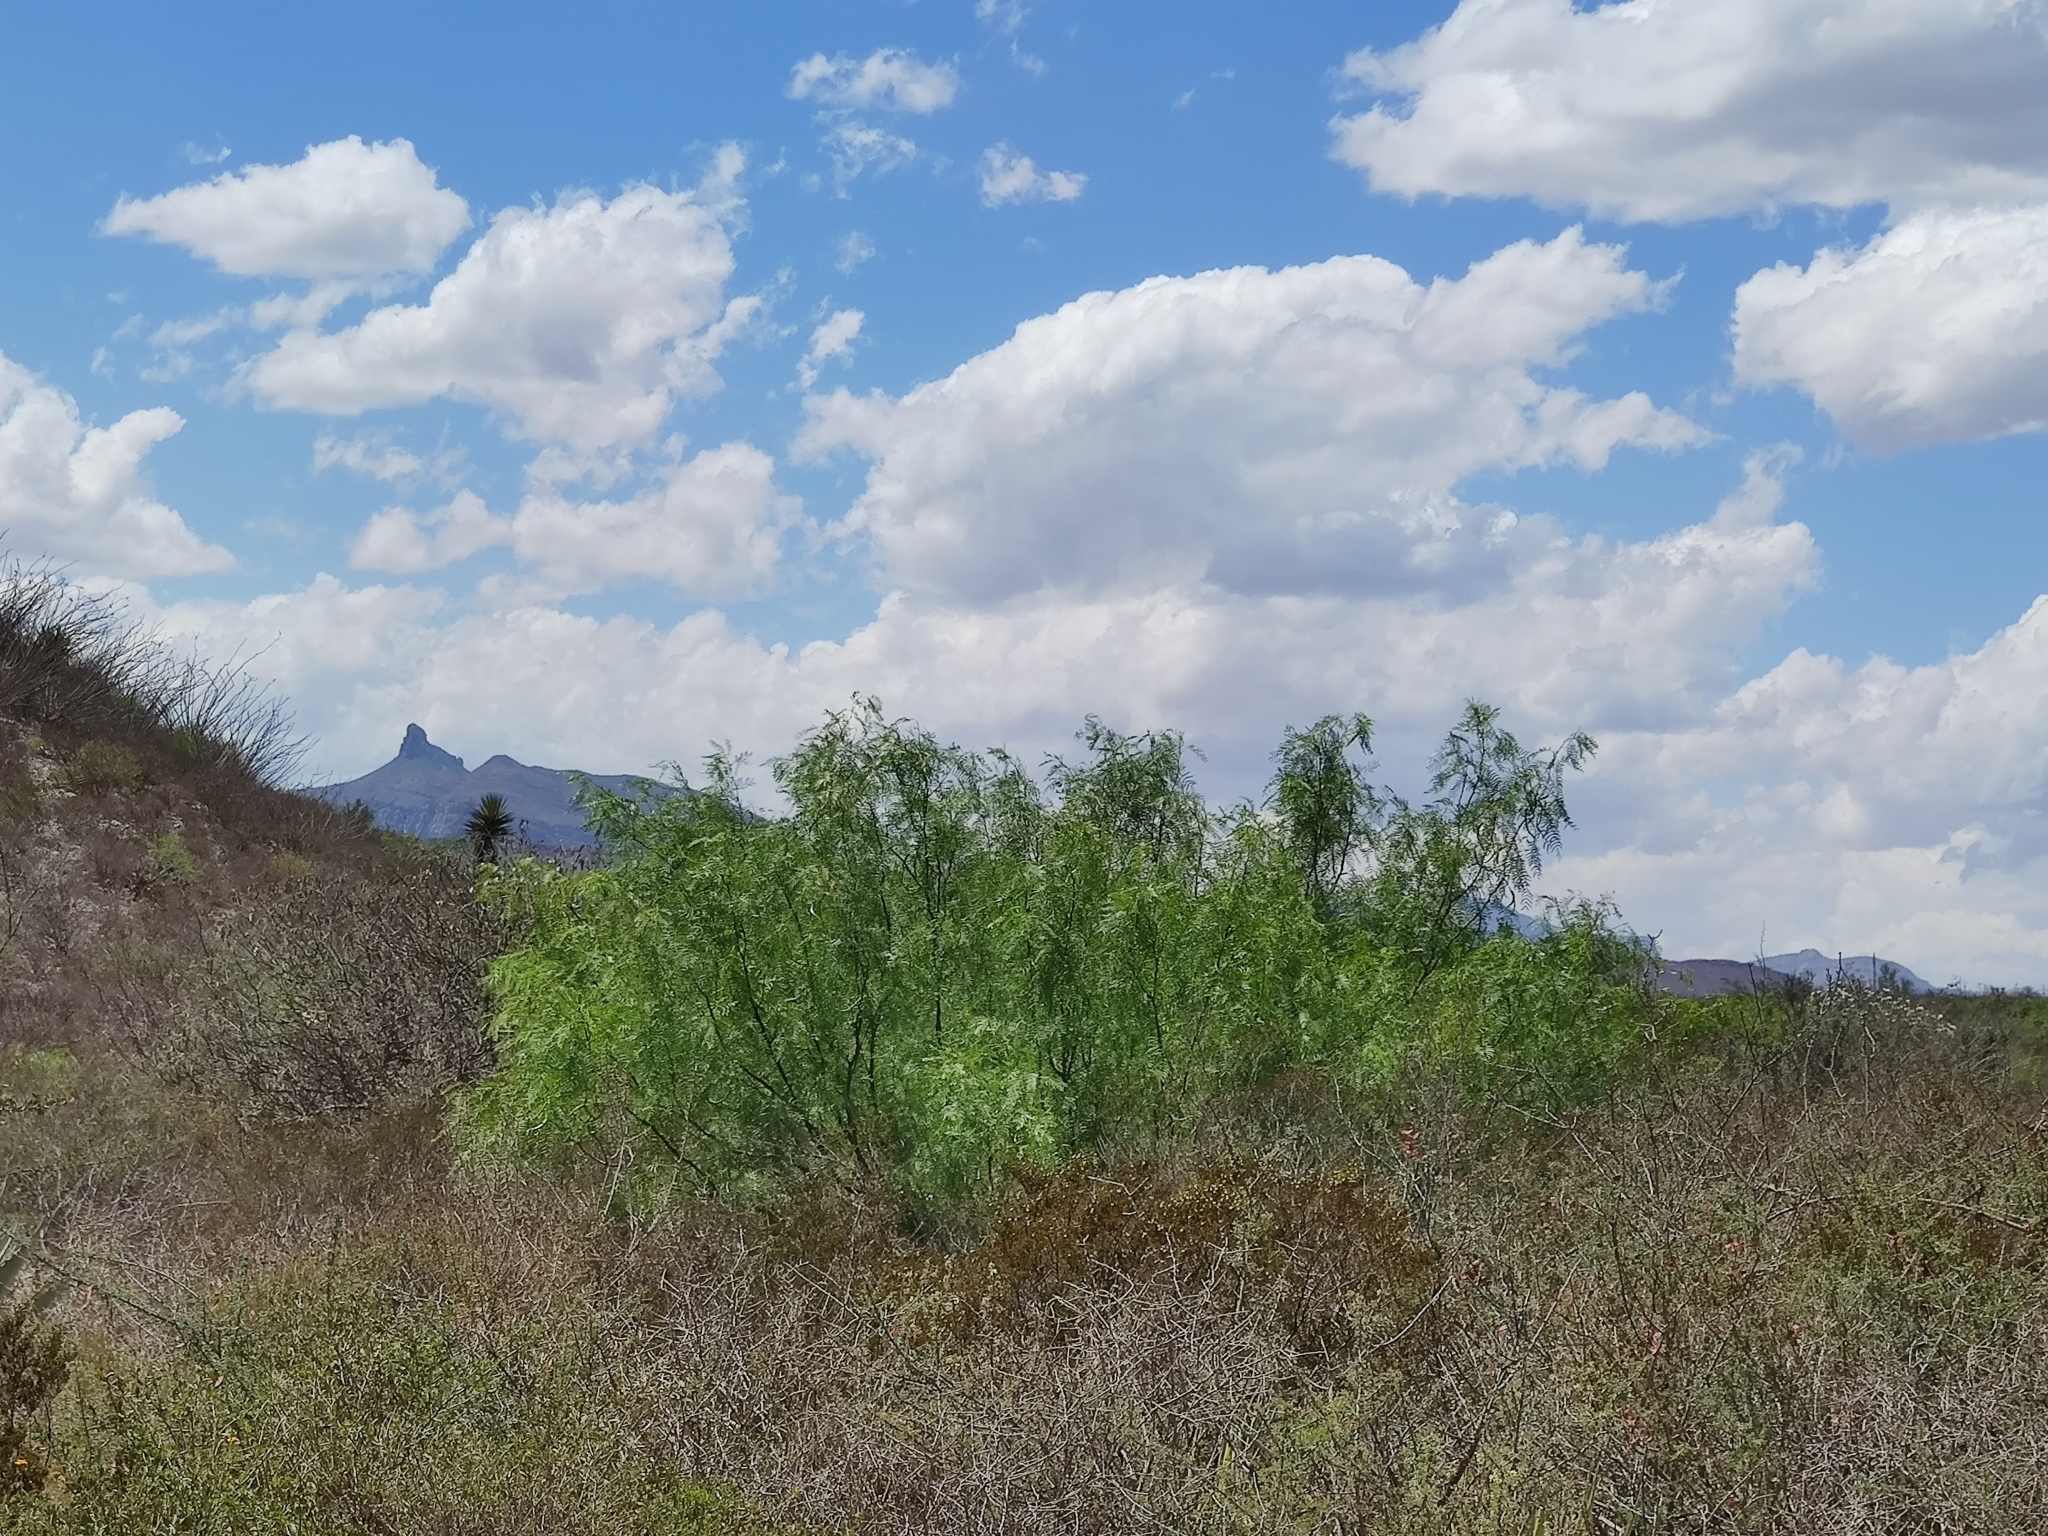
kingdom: Plantae
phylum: Tracheophyta
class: Magnoliopsida
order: Fabales
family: Fabaceae
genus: Prosopis
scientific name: Prosopis glandulosa
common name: Honey mesquite
